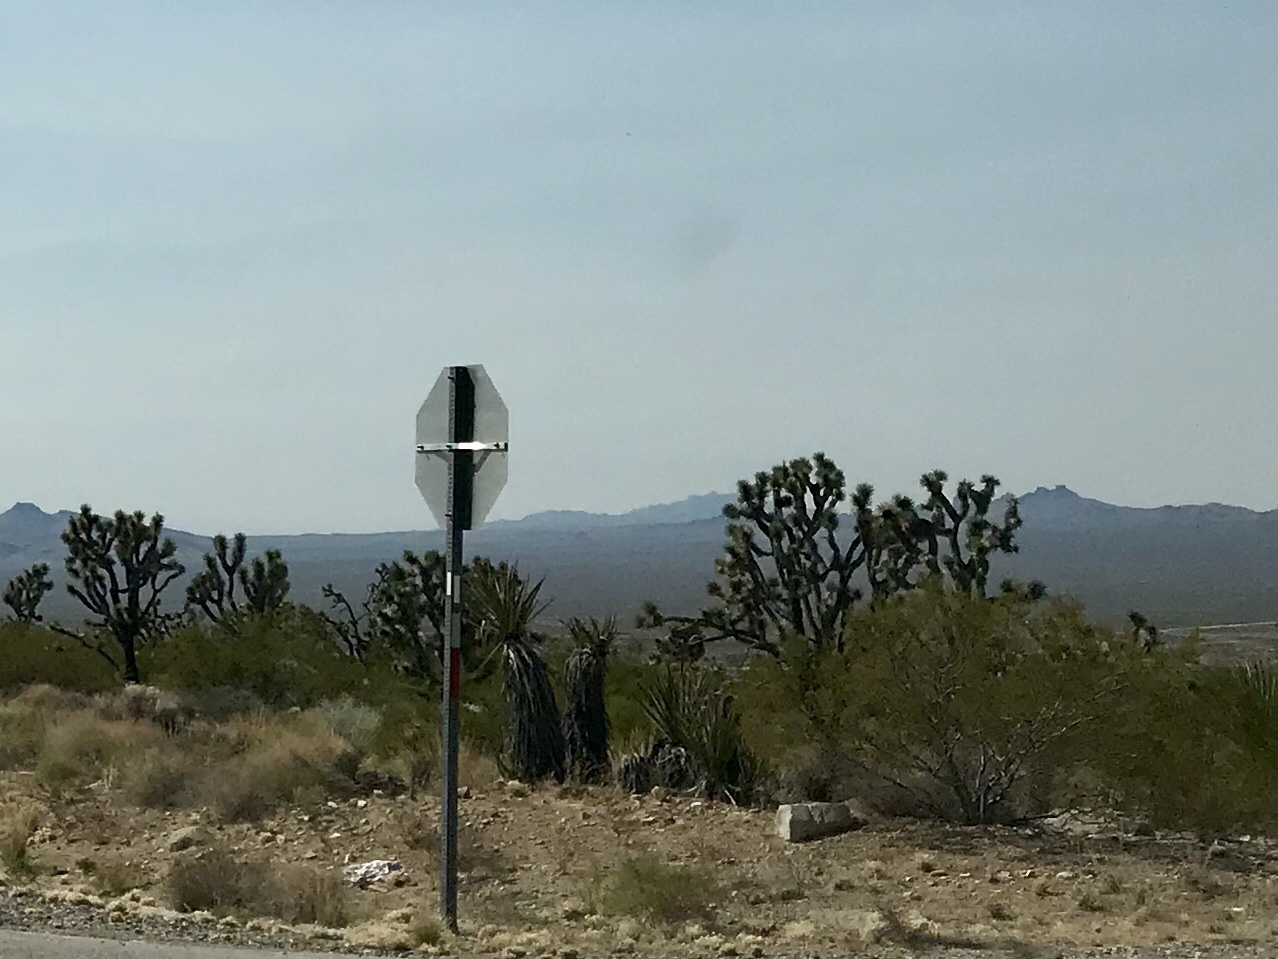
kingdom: Plantae
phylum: Tracheophyta
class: Liliopsida
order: Asparagales
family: Asparagaceae
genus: Yucca
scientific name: Yucca brevifolia
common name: Joshua tree
